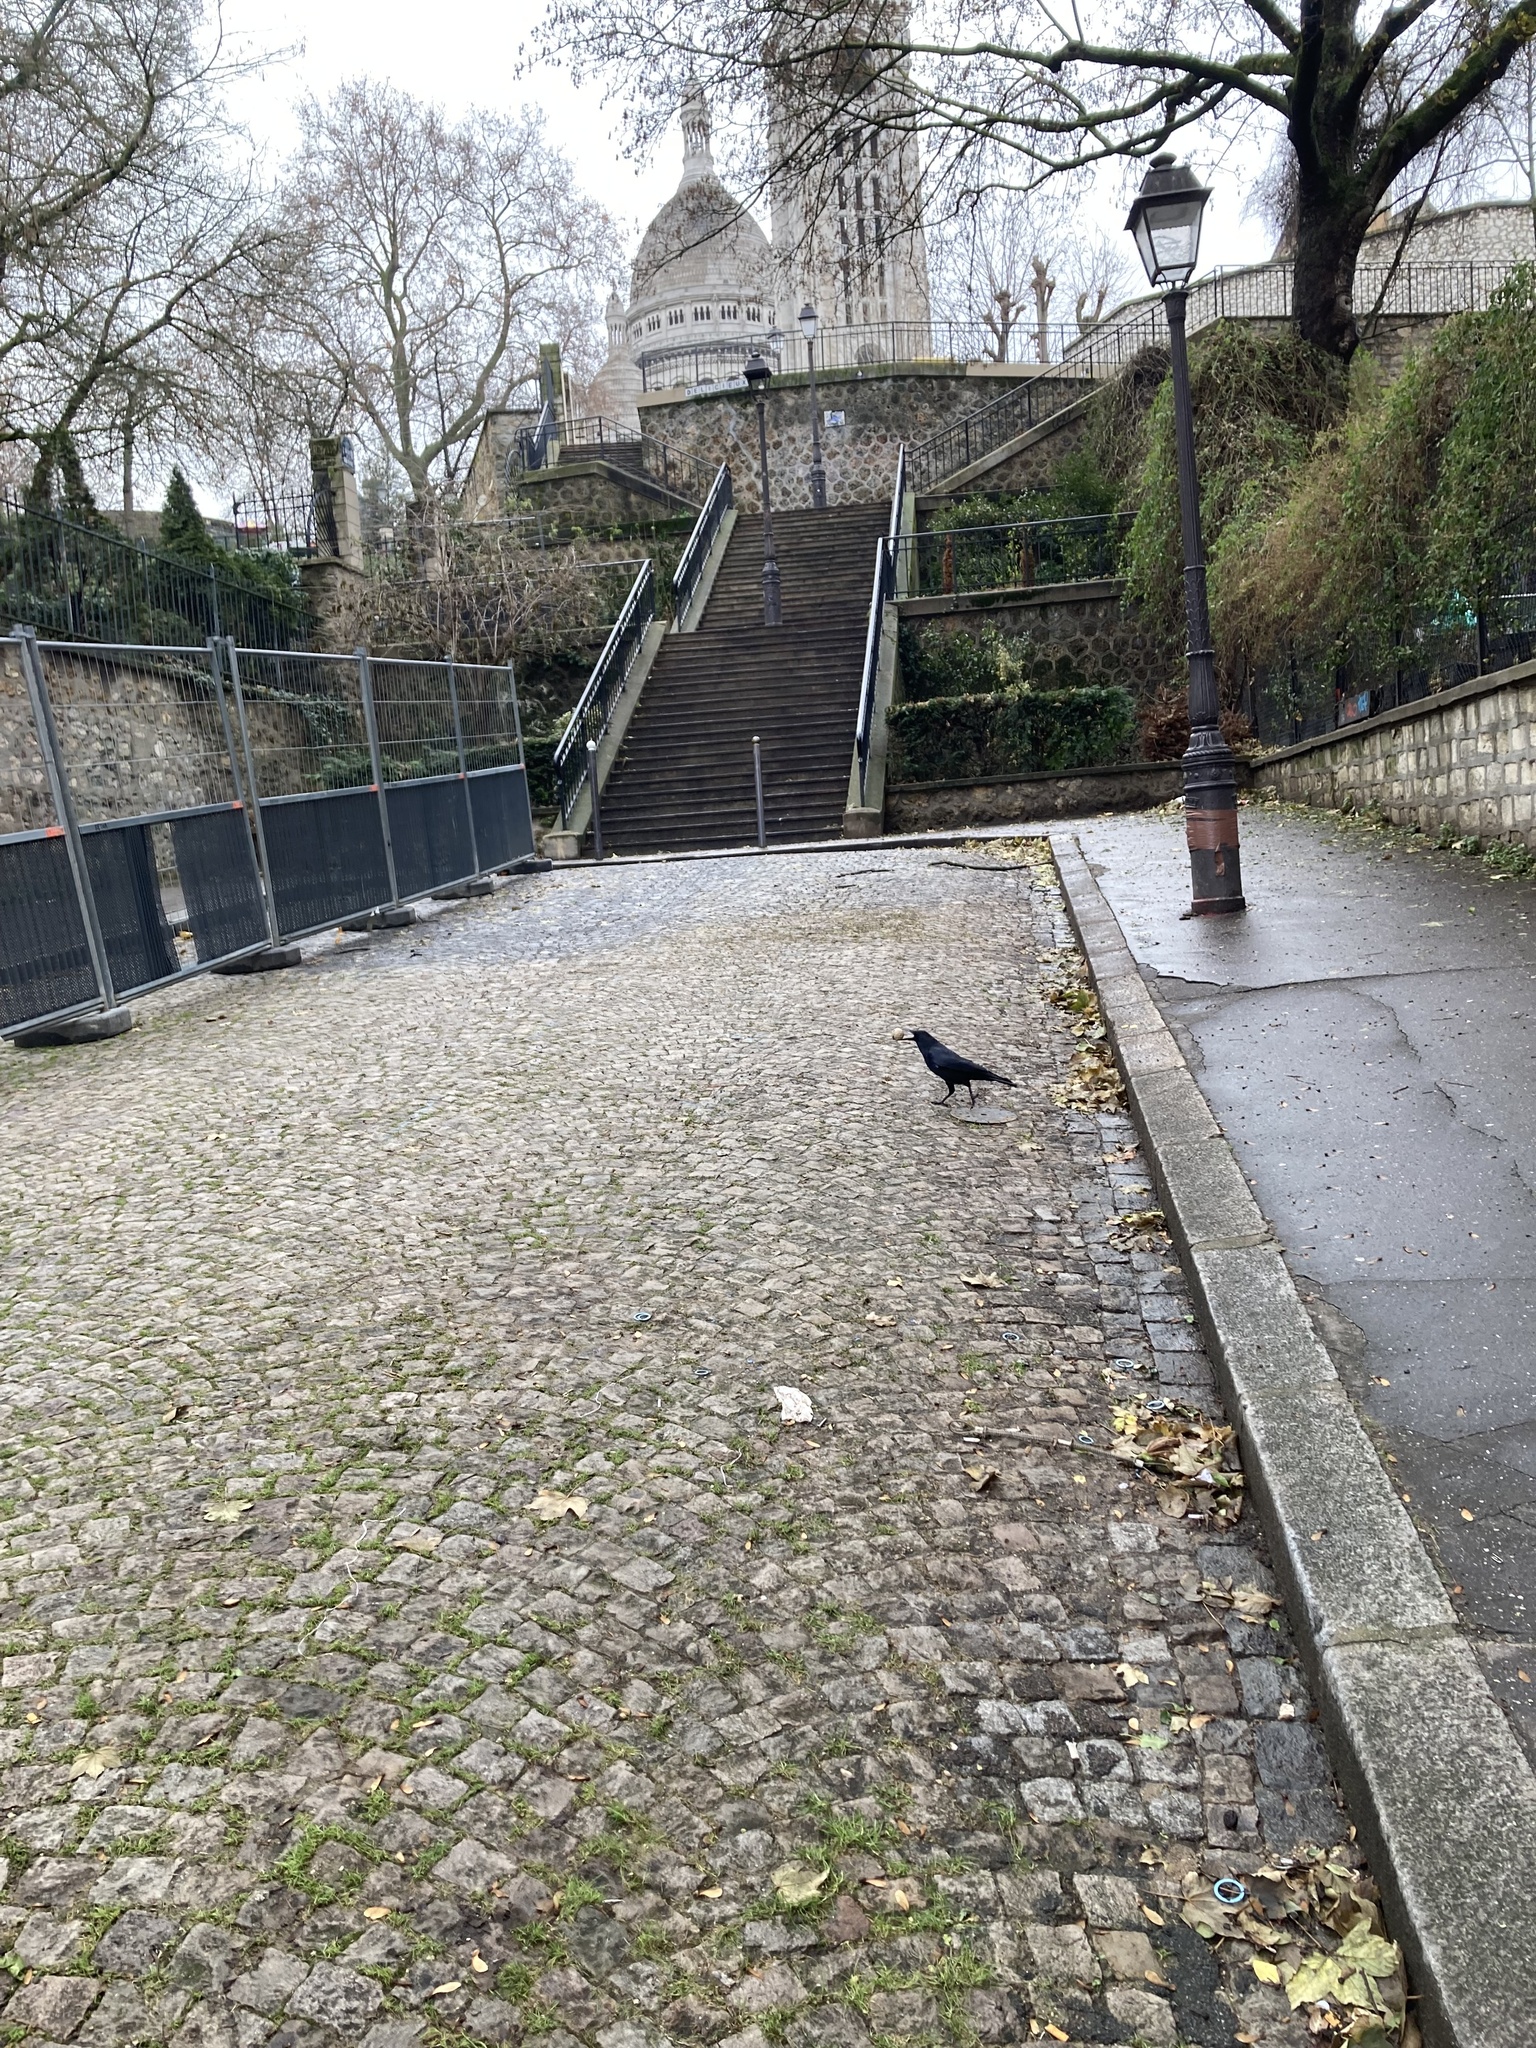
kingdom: Animalia
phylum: Chordata
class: Aves
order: Passeriformes
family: Corvidae
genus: Corvus
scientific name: Corvus corone
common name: Carrion crow
